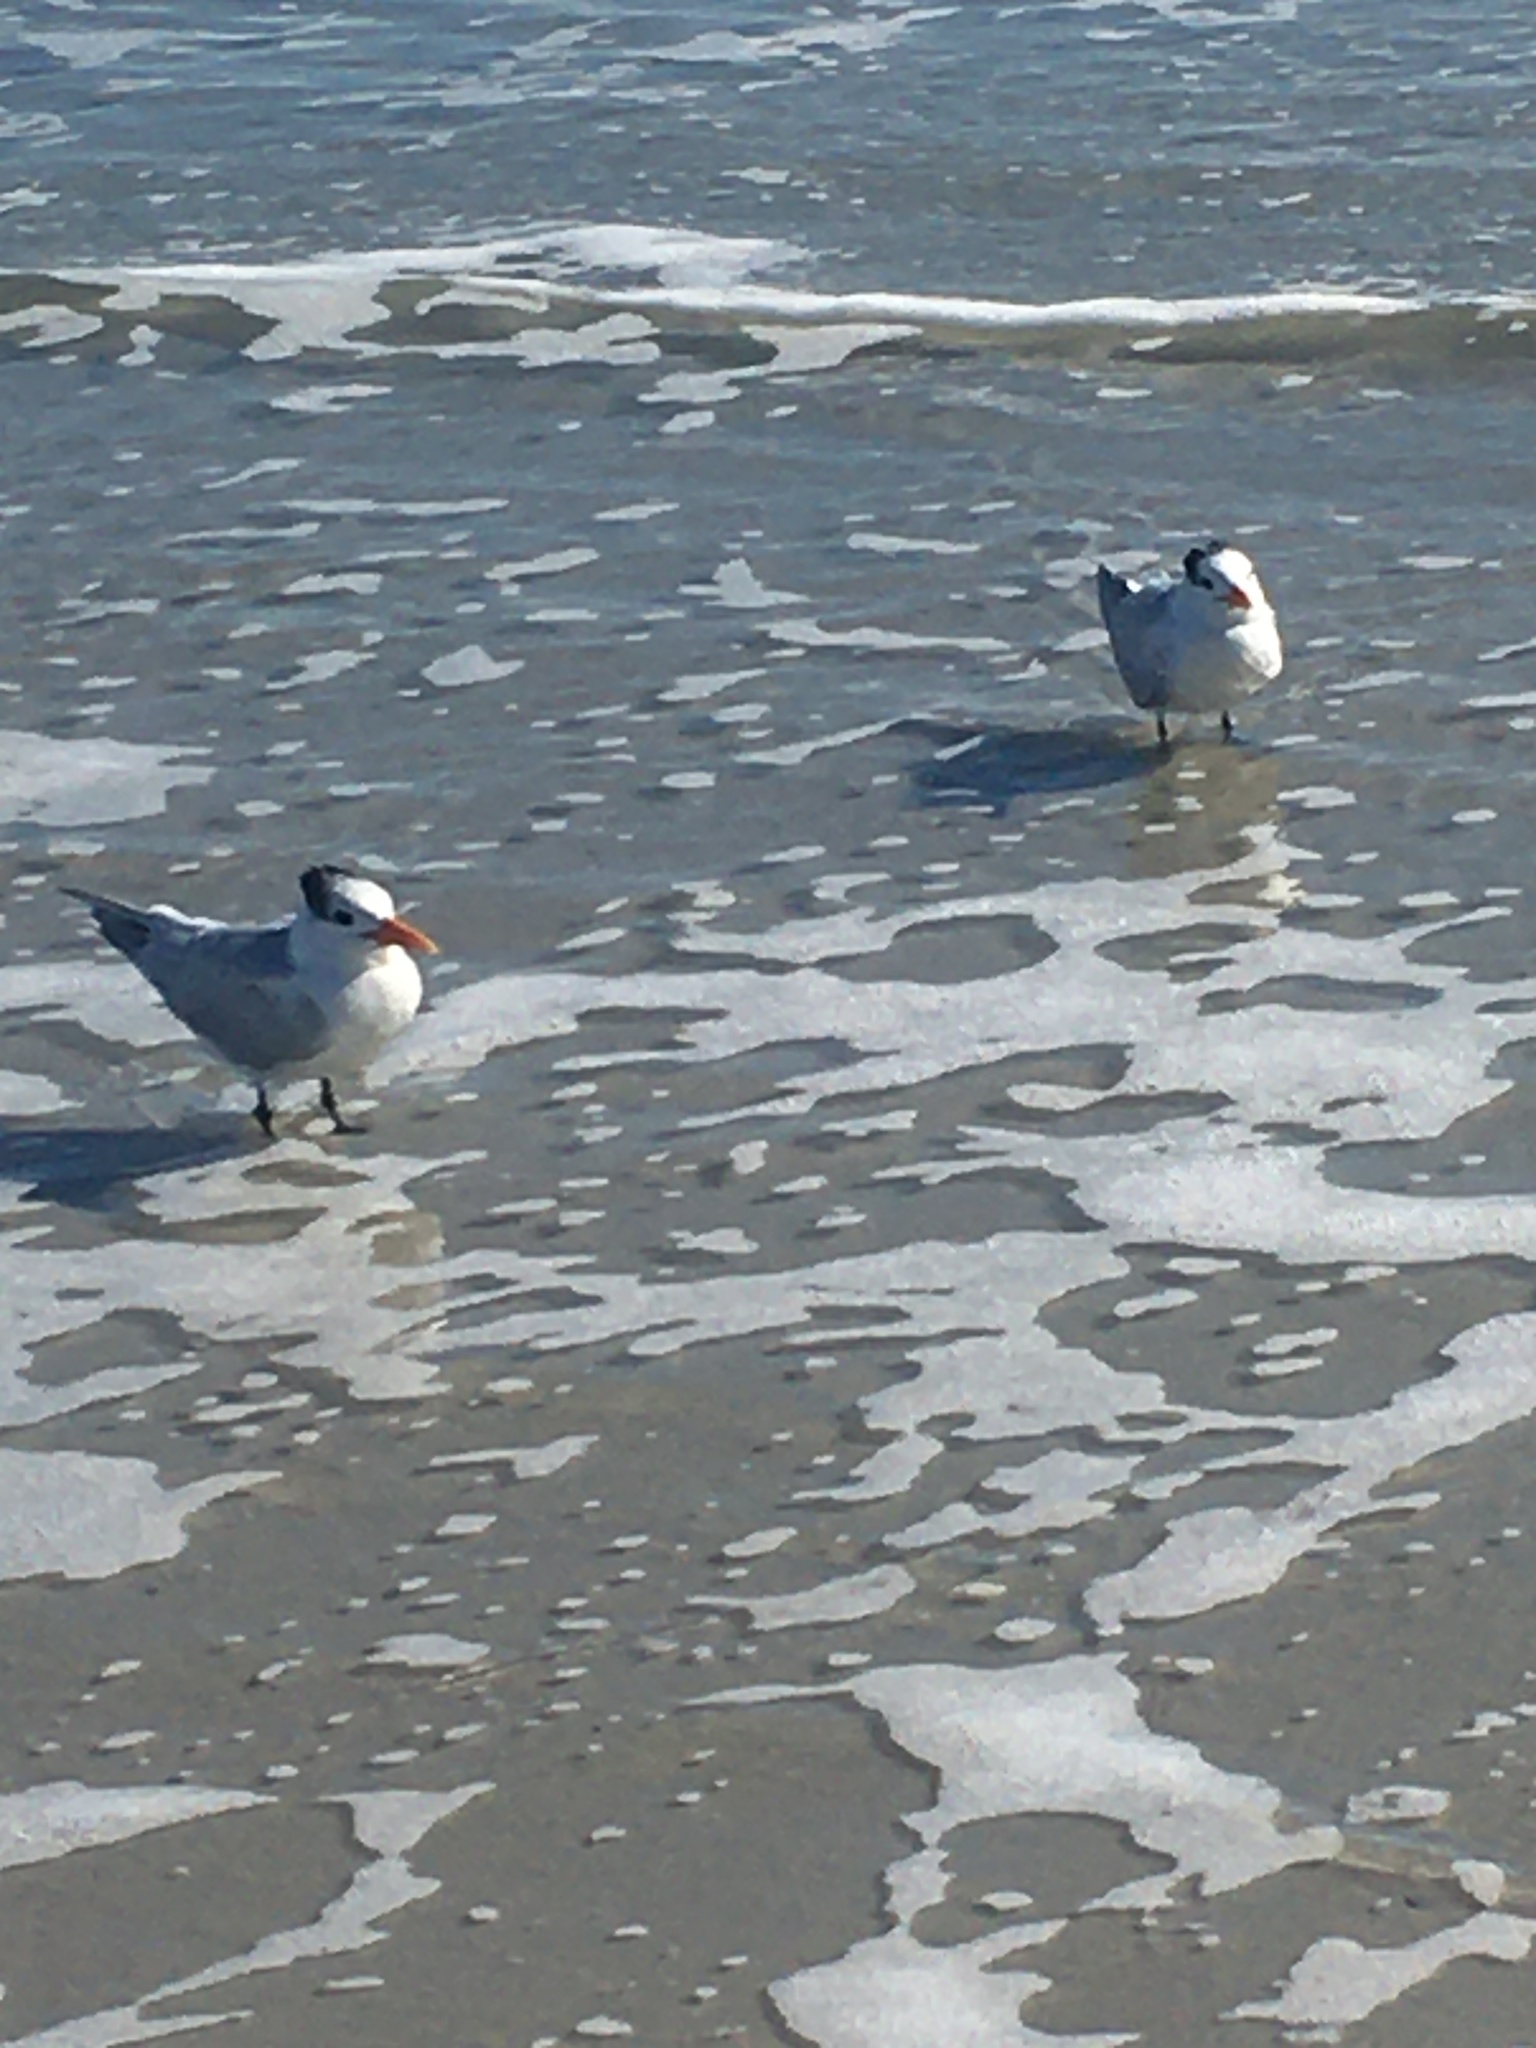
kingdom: Animalia
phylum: Chordata
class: Aves
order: Charadriiformes
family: Laridae
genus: Thalasseus
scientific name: Thalasseus maximus
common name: Royal tern
